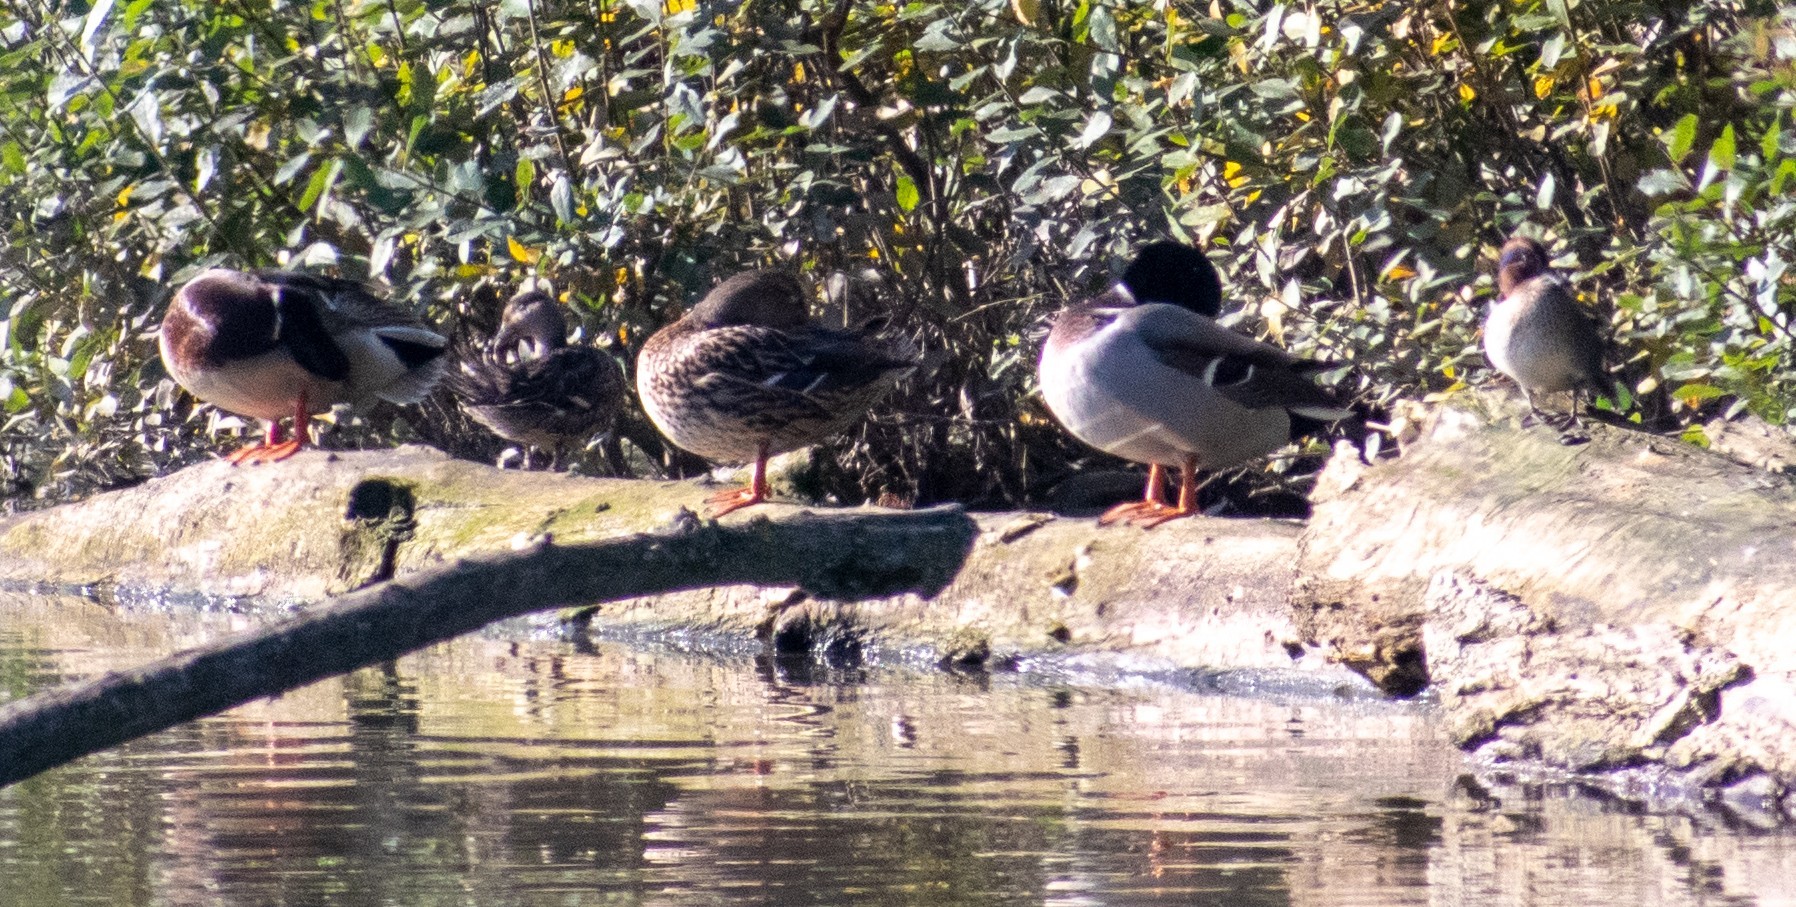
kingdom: Animalia
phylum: Chordata
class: Aves
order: Anseriformes
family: Anatidae
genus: Anas
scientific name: Anas platyrhynchos
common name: Mallard
